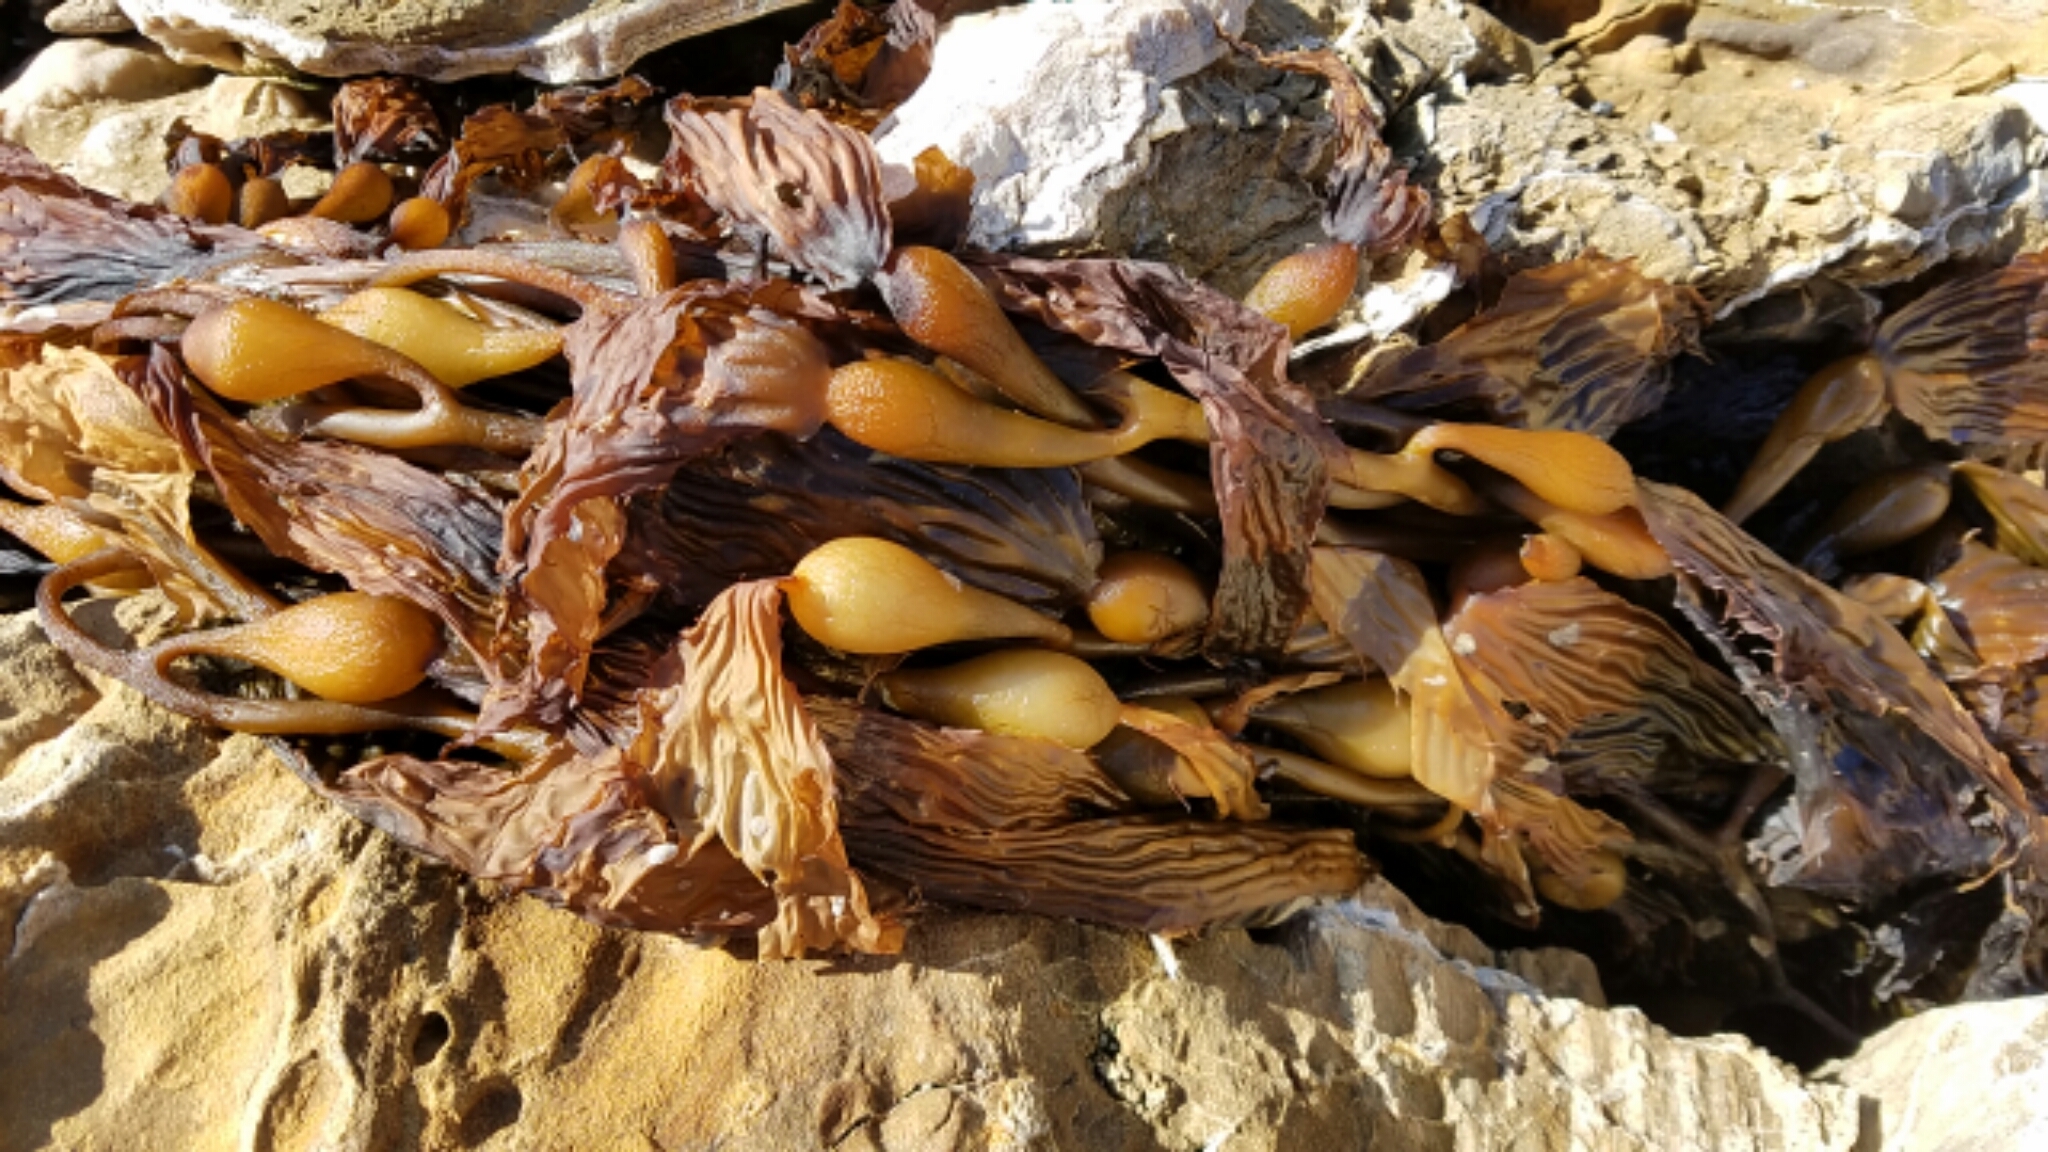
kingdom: Chromista
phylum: Ochrophyta
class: Phaeophyceae
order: Laminariales
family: Laminariaceae
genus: Macrocystis
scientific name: Macrocystis pyrifera
